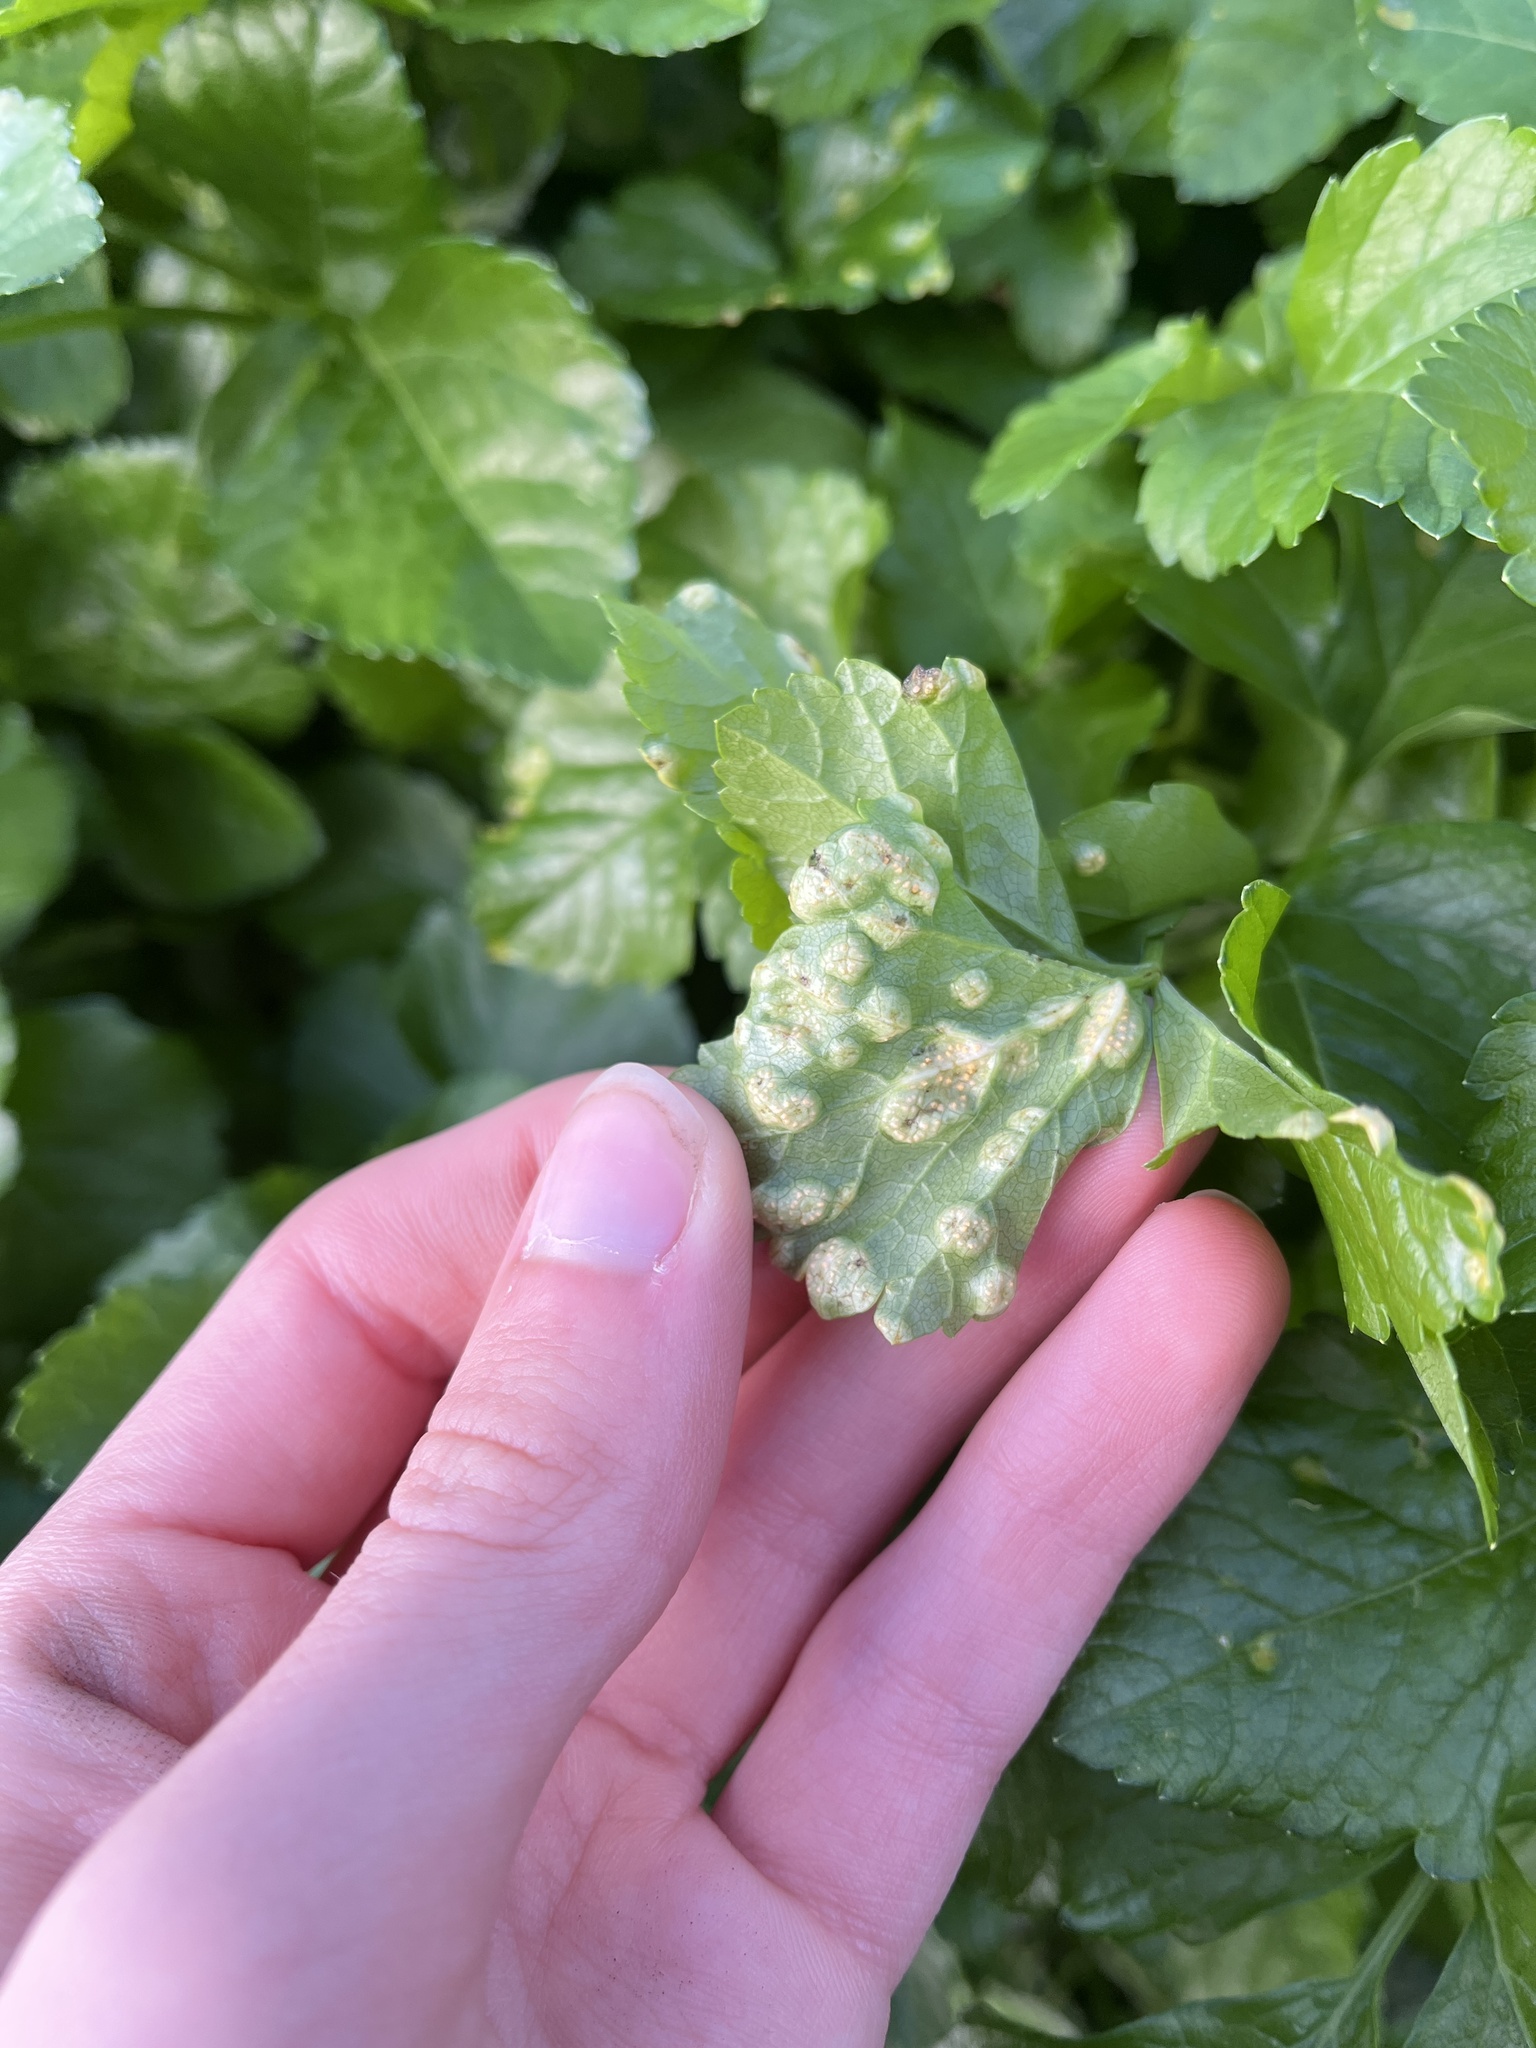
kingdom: Fungi
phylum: Basidiomycota
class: Pucciniomycetes
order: Pucciniales
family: Pucciniaceae
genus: Puccinia
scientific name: Puccinia smyrnii
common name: Alexanders rust
